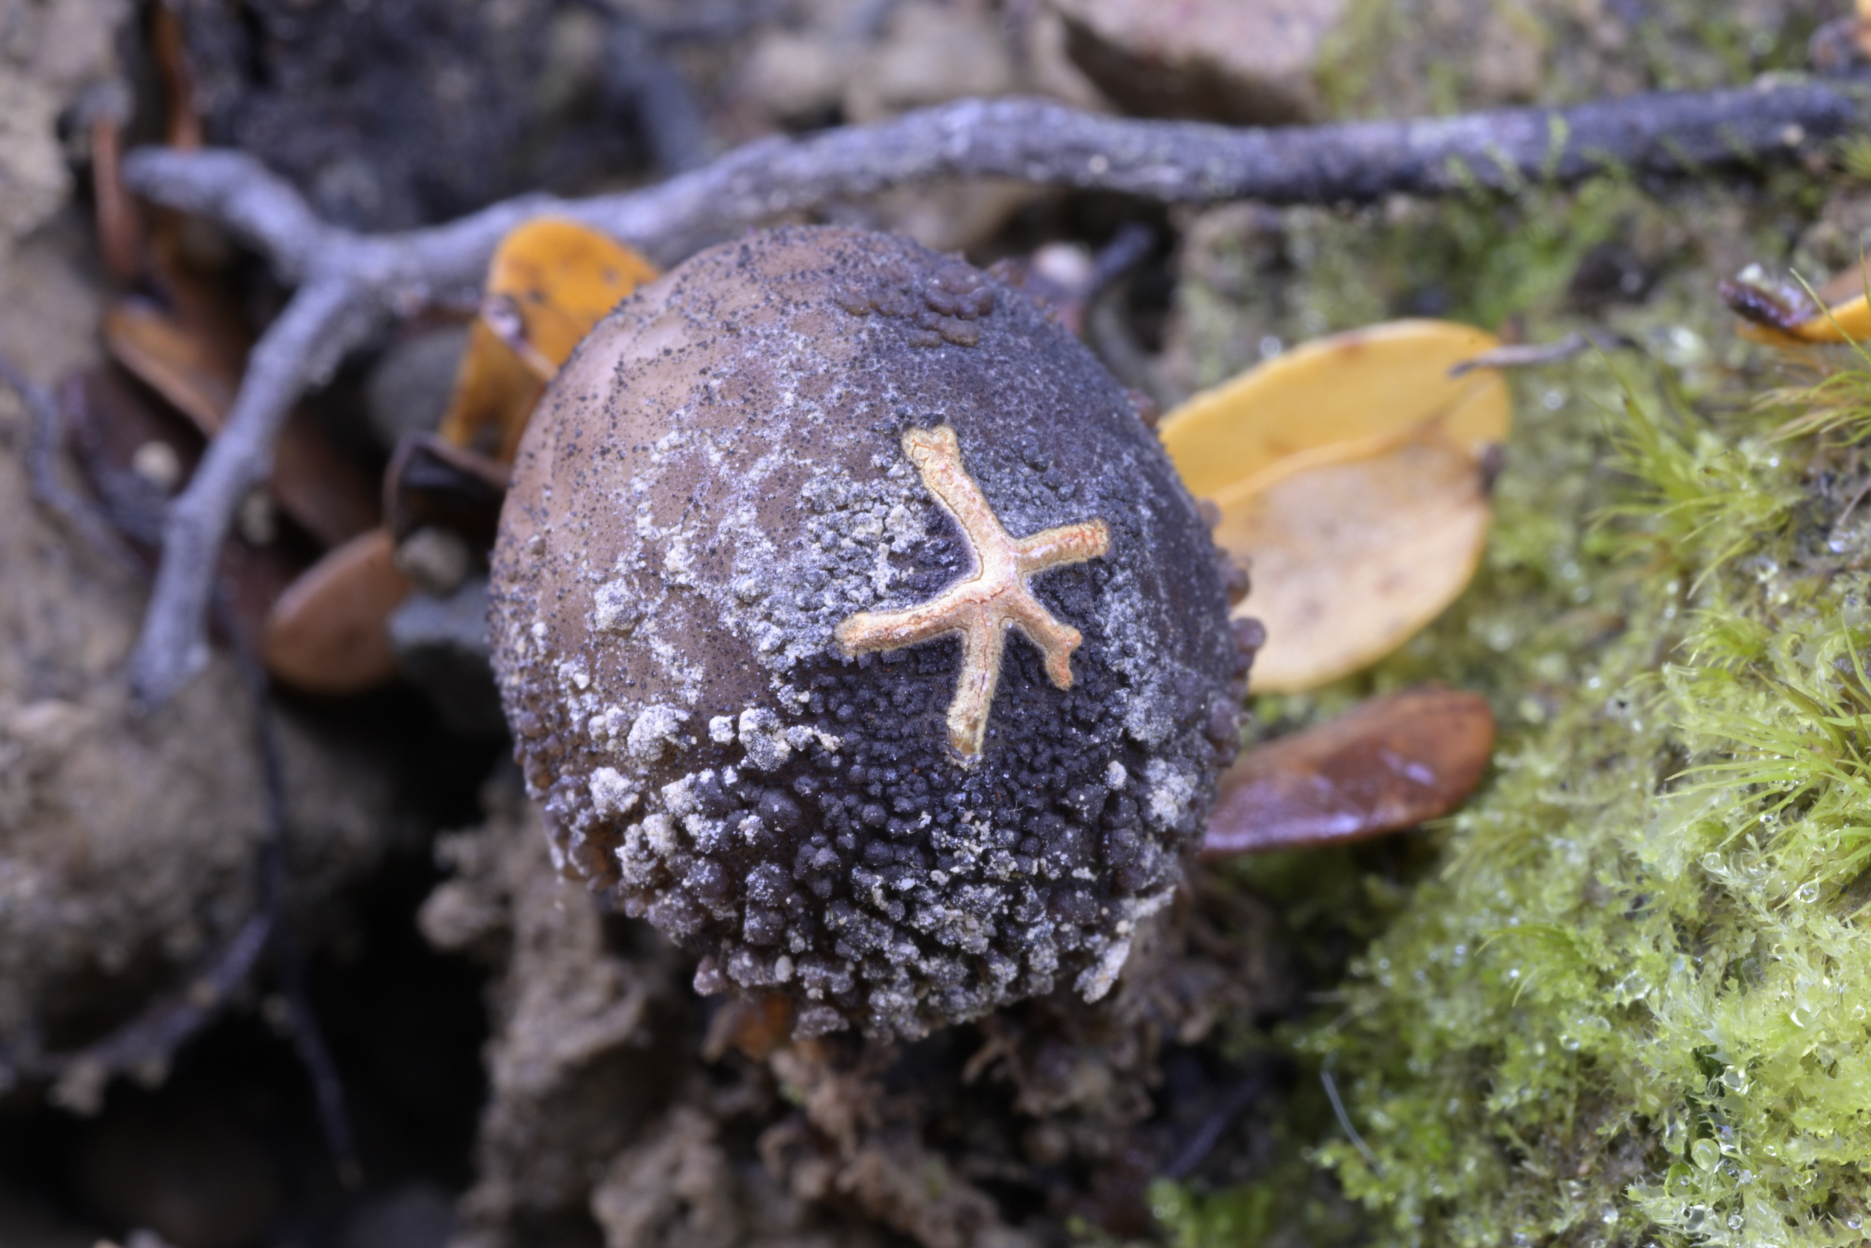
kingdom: Fungi
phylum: Basidiomycota
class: Agaricomycetes
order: Boletales
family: Calostomataceae
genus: Calostoma
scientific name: Calostoma fuscum
